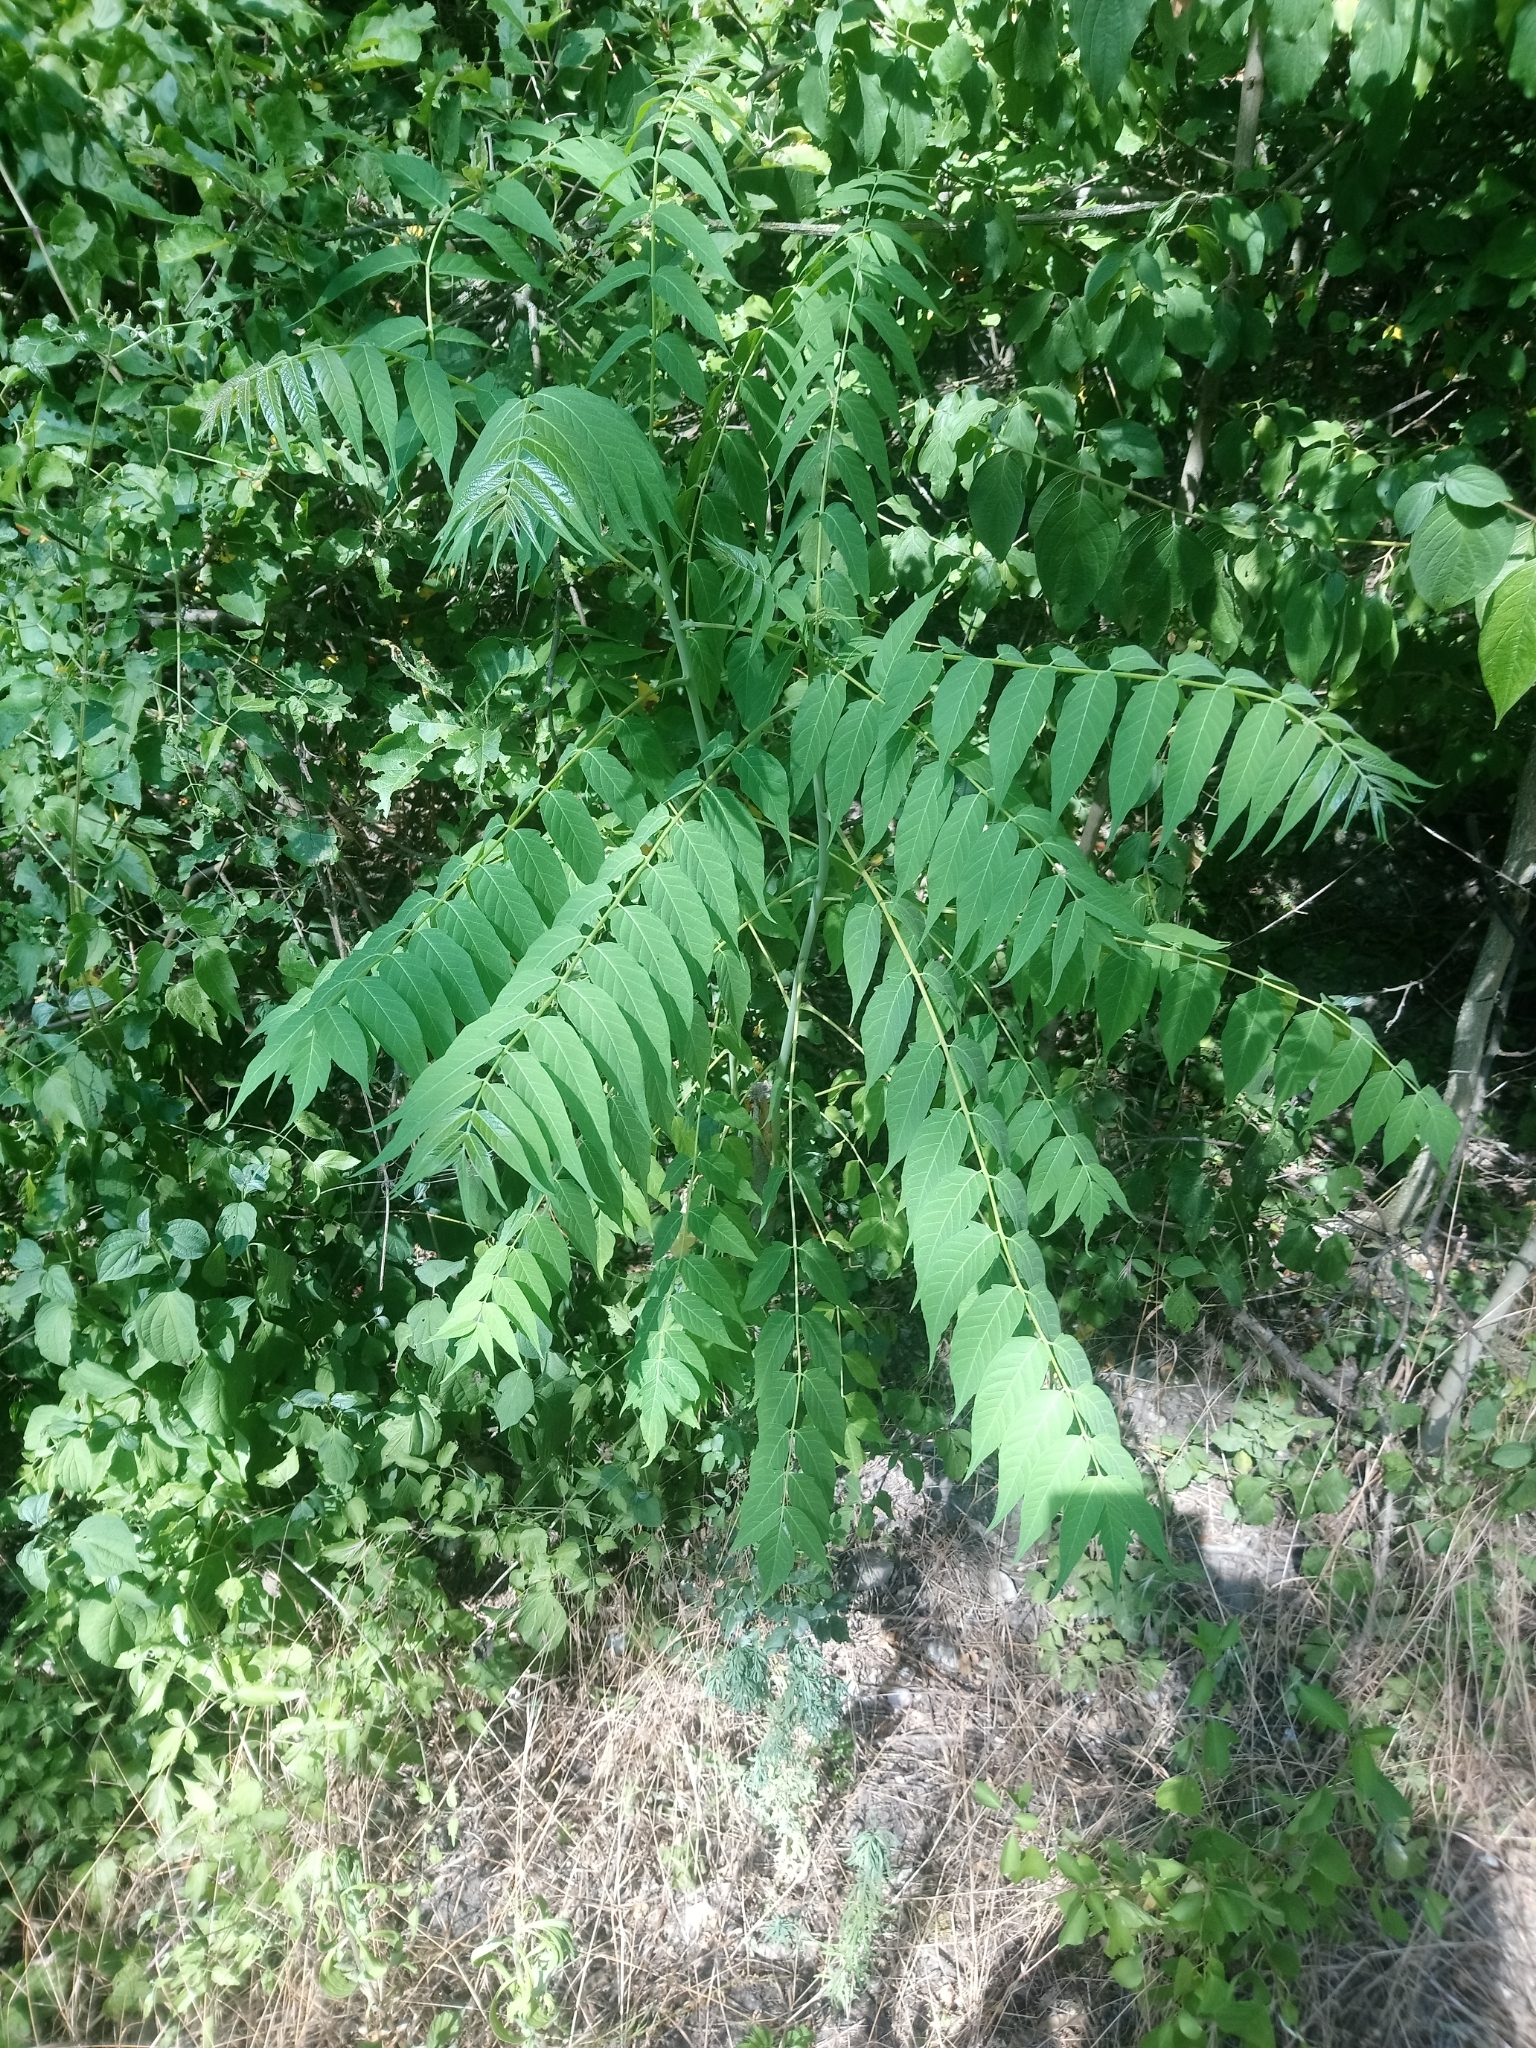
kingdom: Plantae
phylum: Tracheophyta
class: Magnoliopsida
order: Sapindales
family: Simaroubaceae
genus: Ailanthus
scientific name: Ailanthus altissima
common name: Tree-of-heaven
